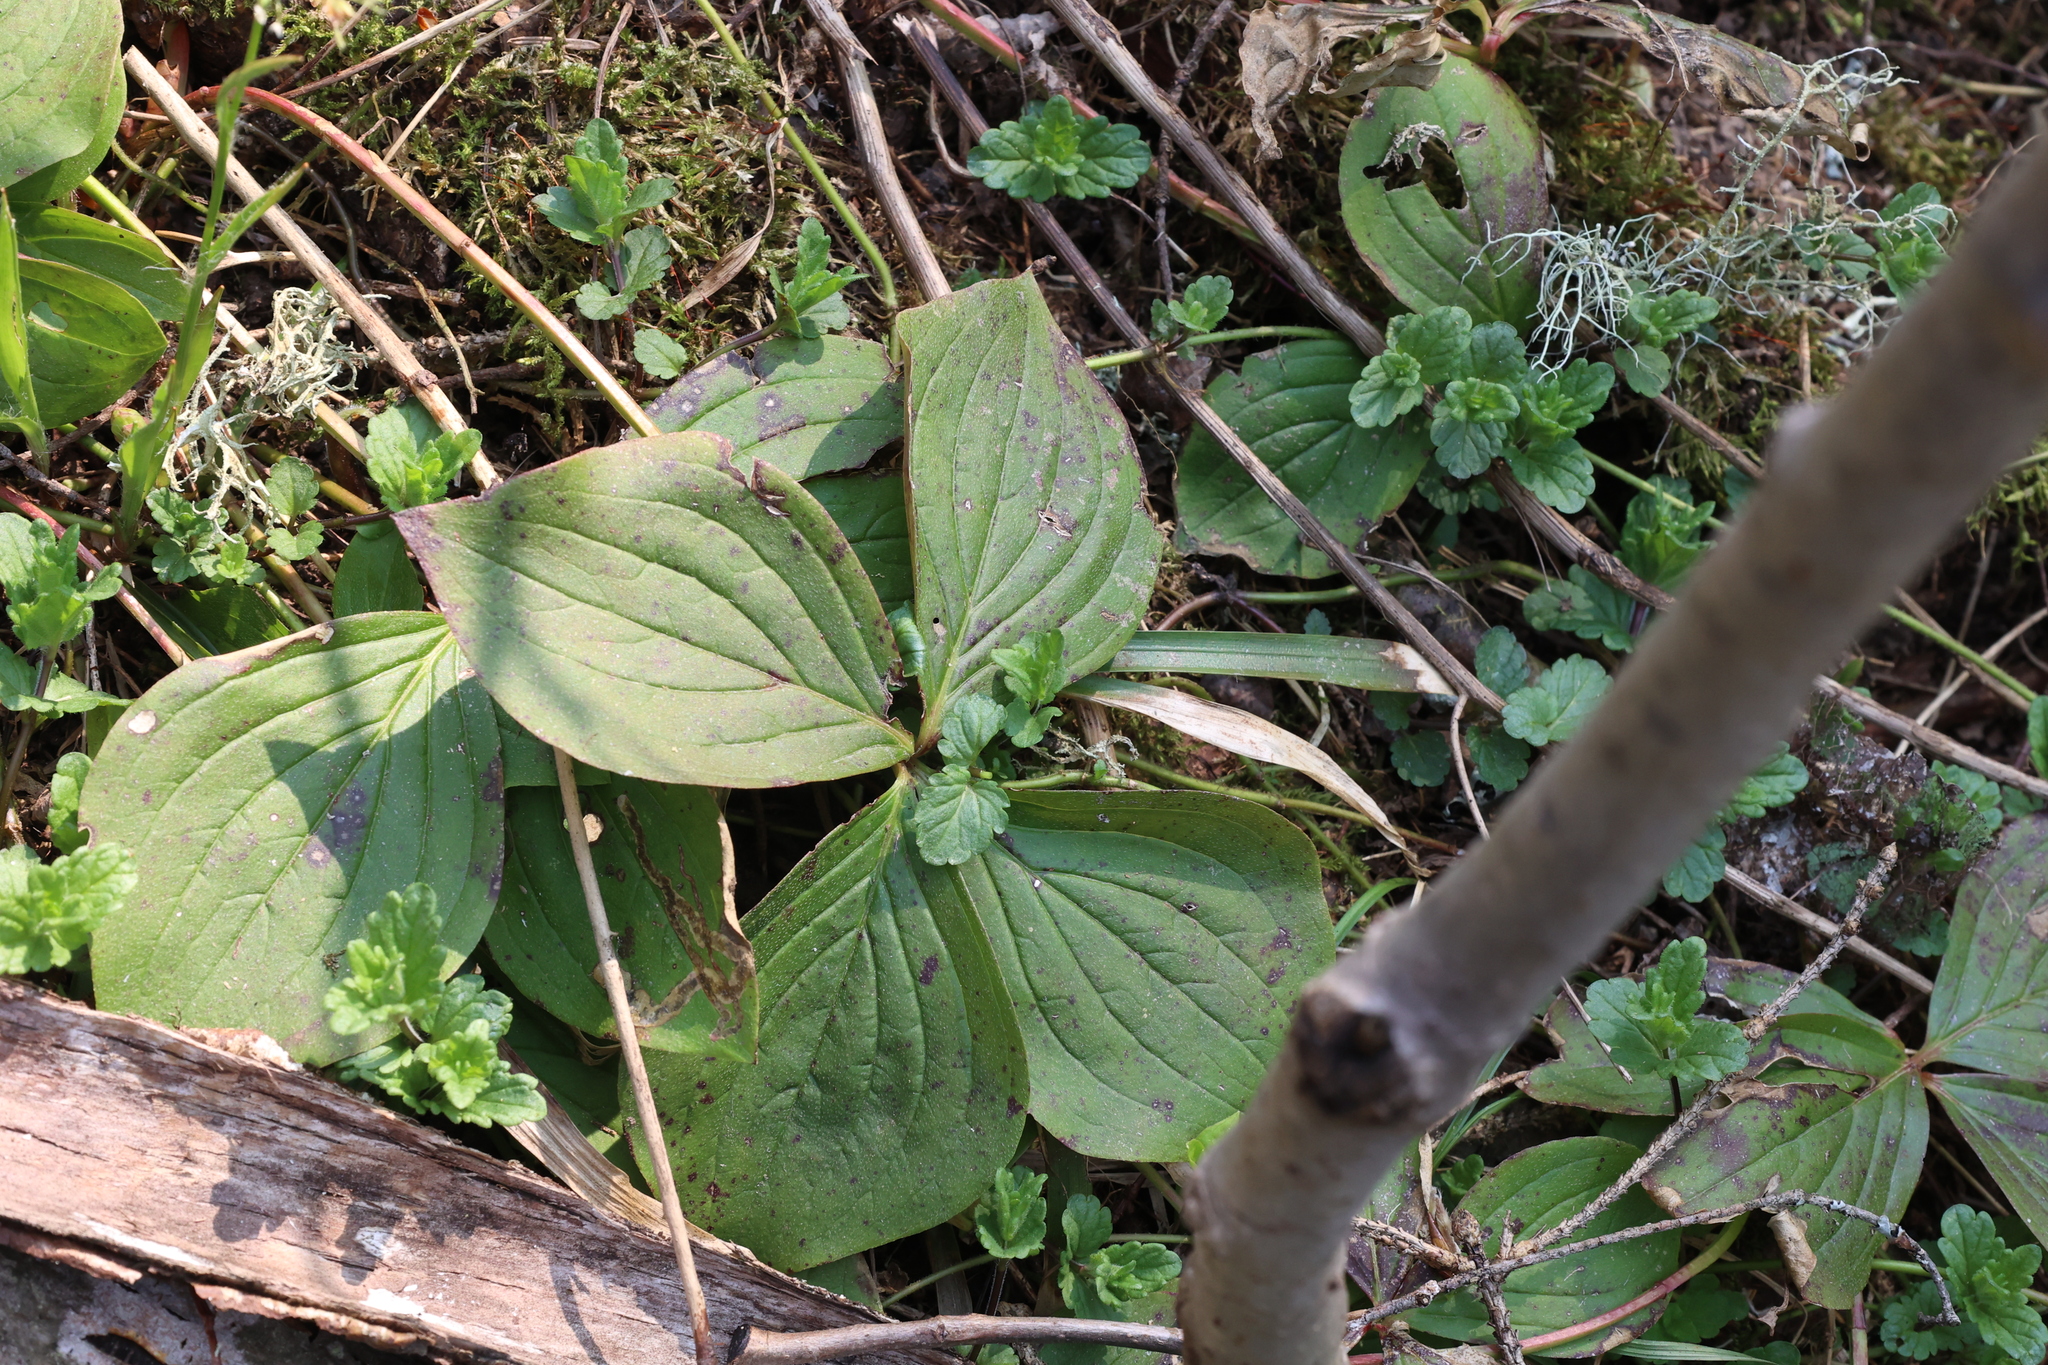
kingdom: Plantae
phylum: Tracheophyta
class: Magnoliopsida
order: Cornales
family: Cornaceae
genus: Cornus
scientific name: Cornus canadensis
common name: Creeping dogwood
